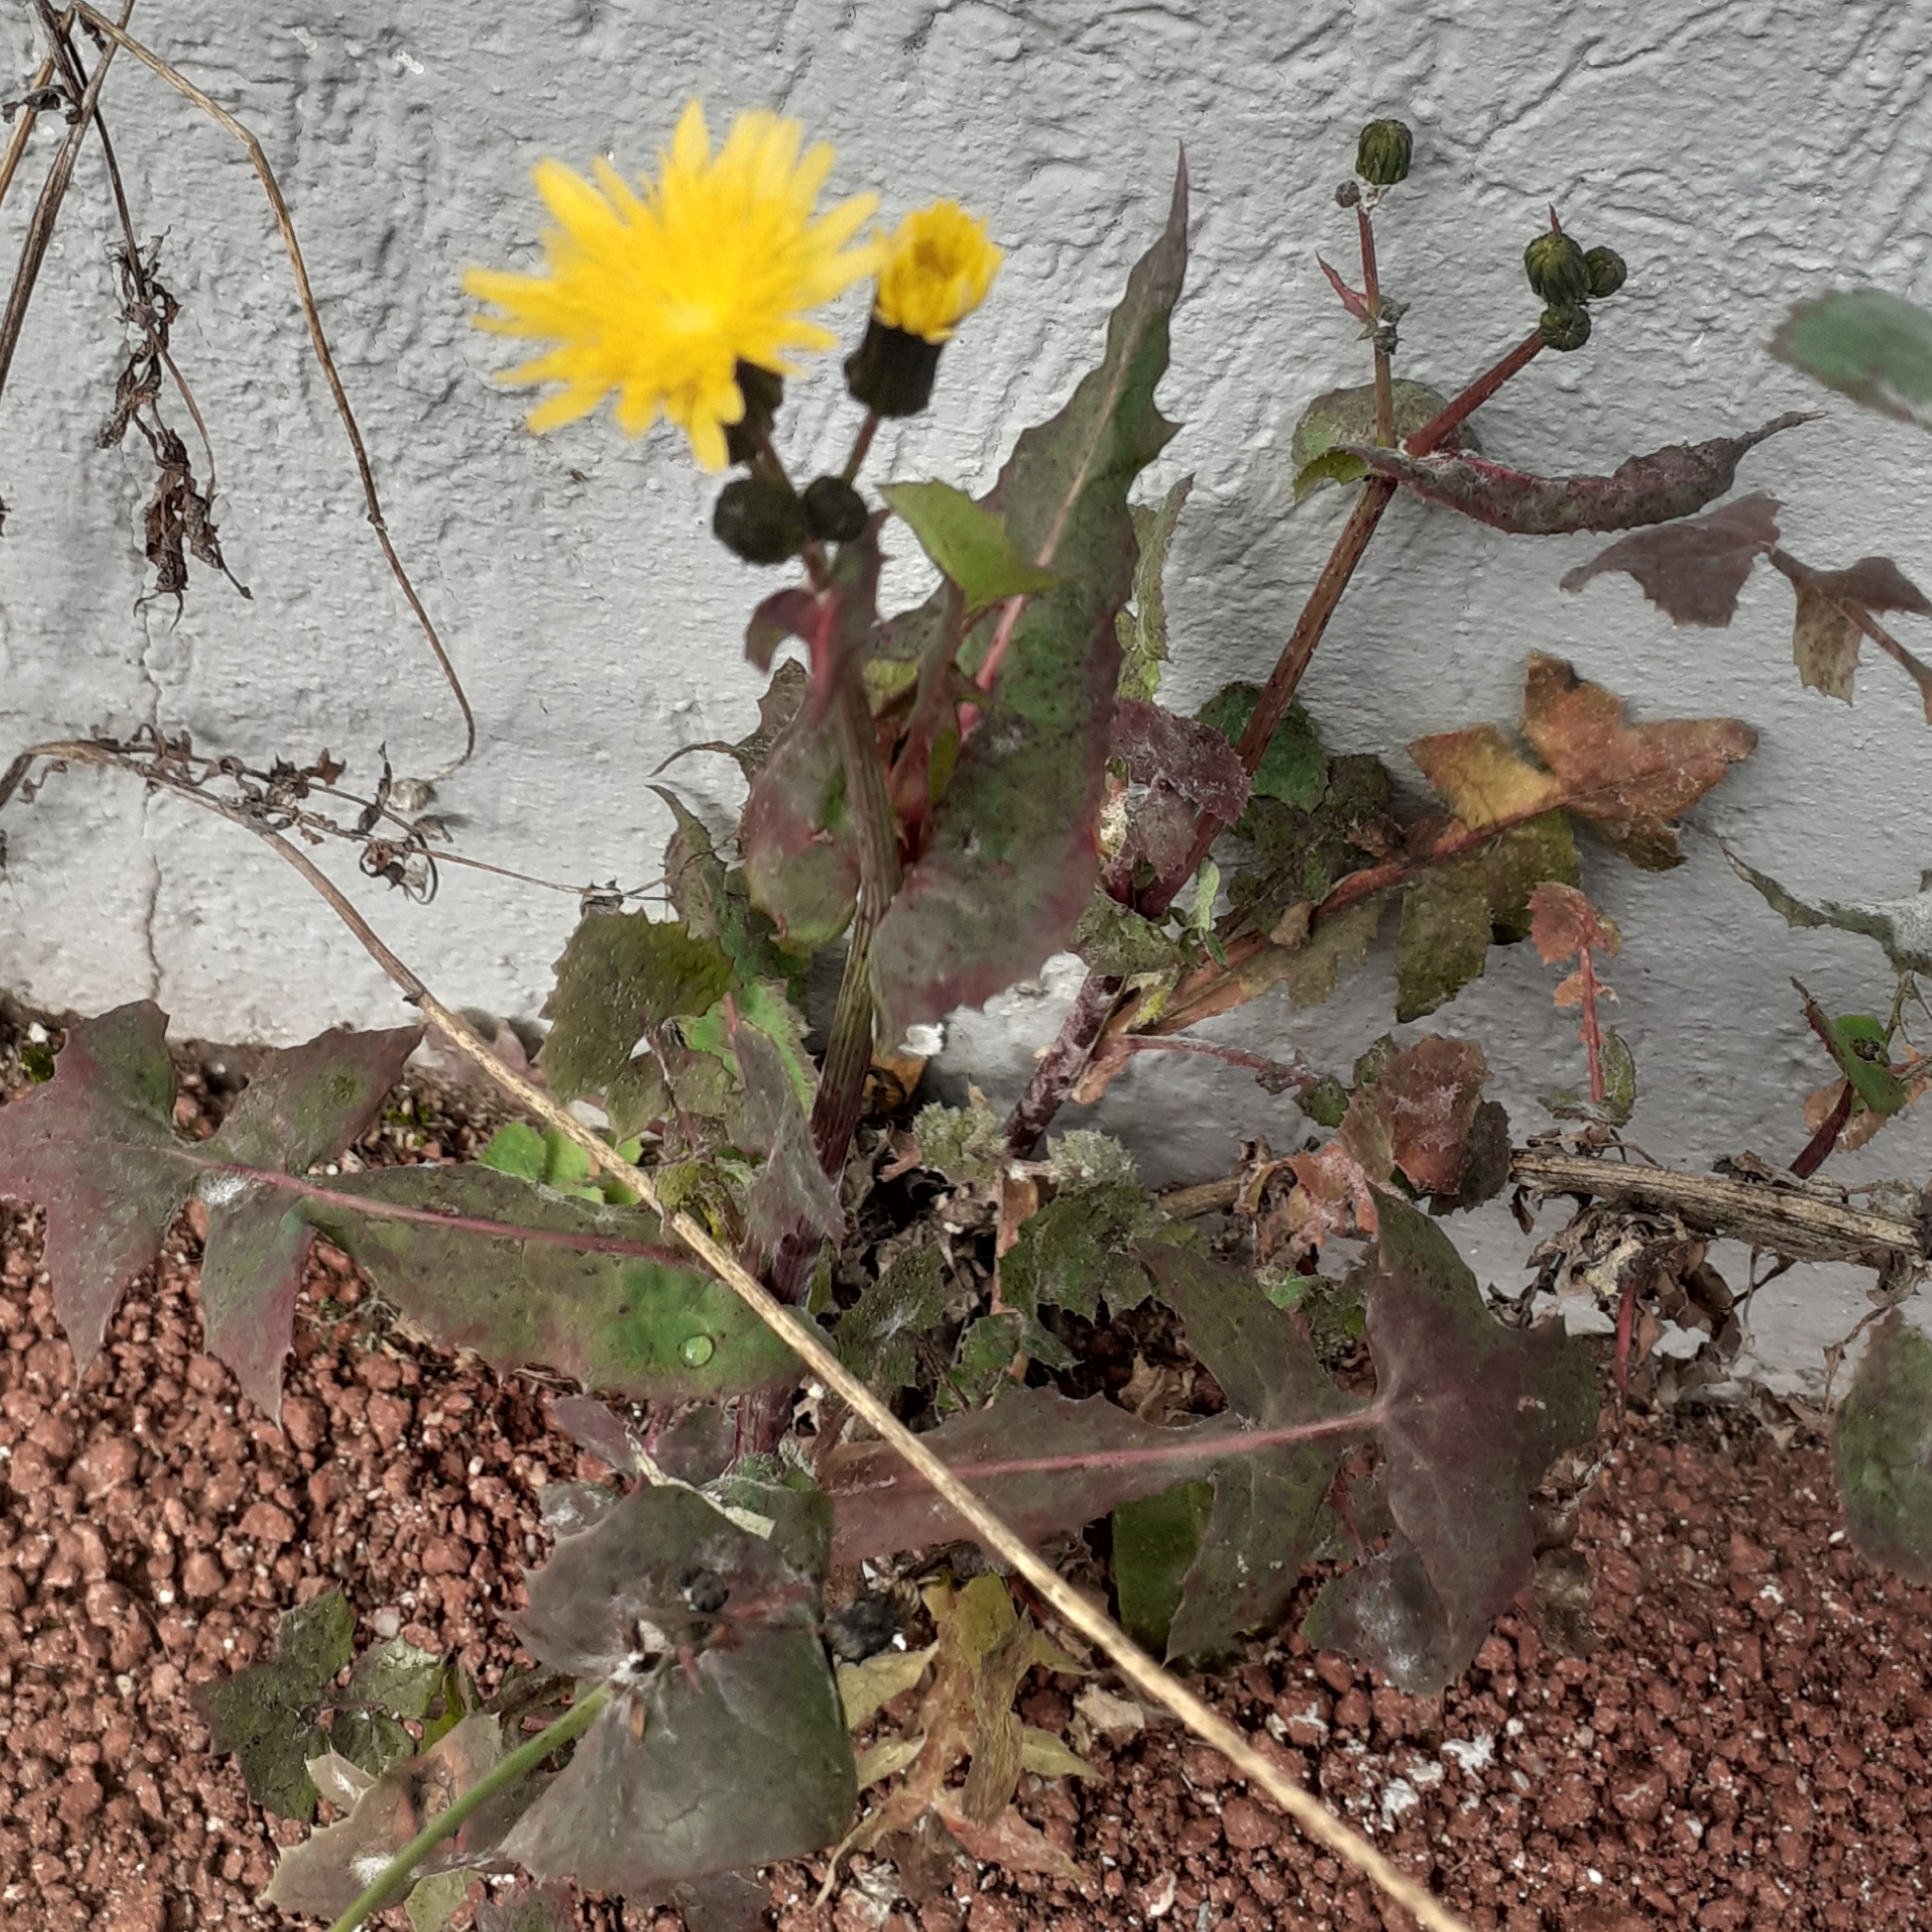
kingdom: Plantae
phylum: Tracheophyta
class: Magnoliopsida
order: Asterales
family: Asteraceae
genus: Sonchus
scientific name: Sonchus oleraceus
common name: Common sowthistle
